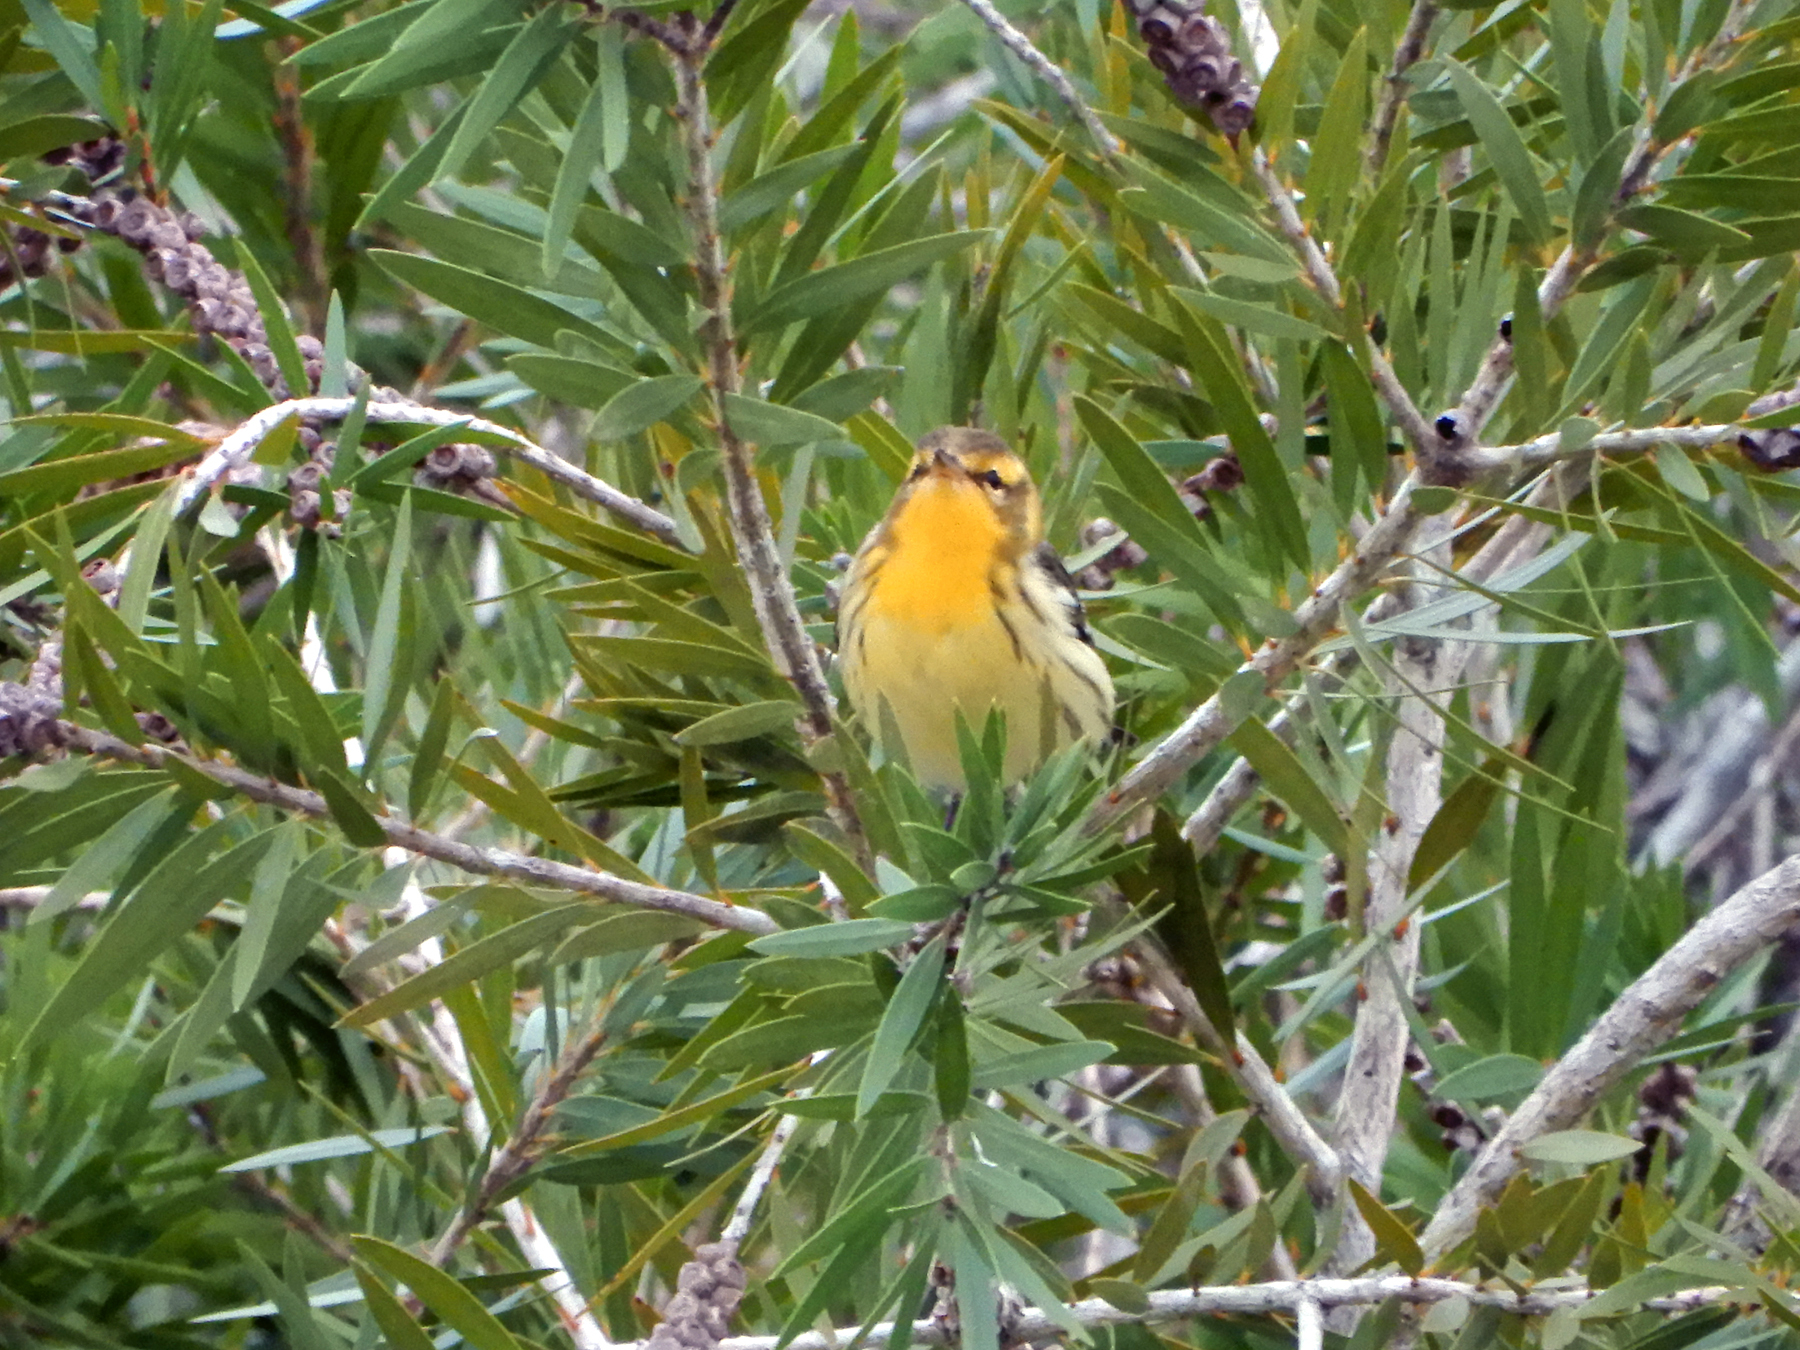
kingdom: Animalia
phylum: Chordata
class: Aves
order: Passeriformes
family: Parulidae
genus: Setophaga
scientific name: Setophaga fusca
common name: Blackburnian warbler
